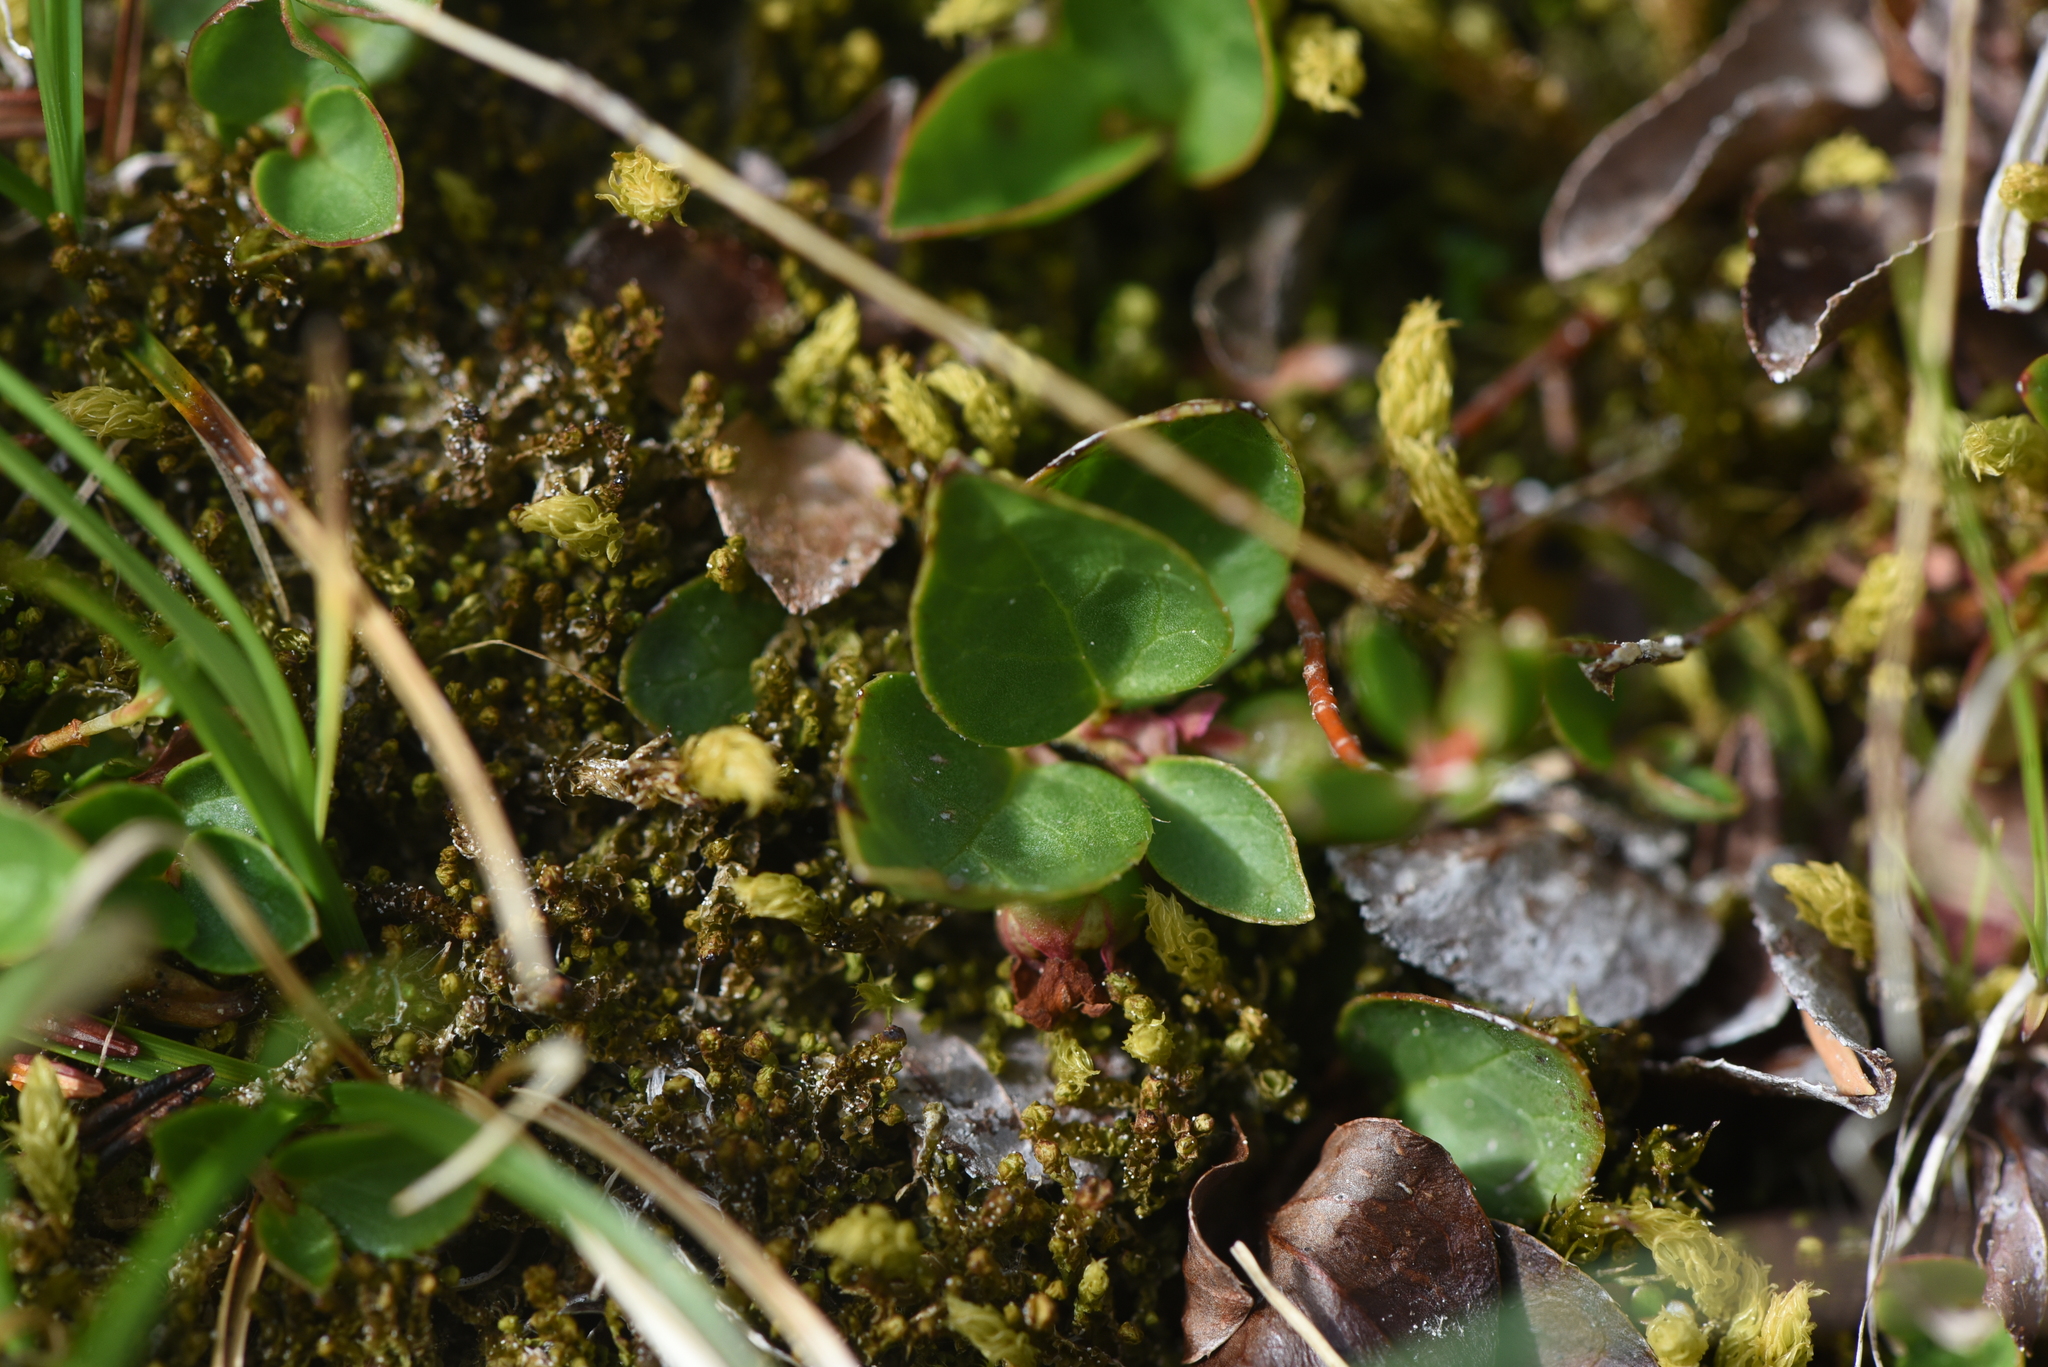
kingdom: Plantae
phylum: Tracheophyta
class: Magnoliopsida
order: Ericales
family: Ericaceae
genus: Gaultheria
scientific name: Gaultheria humifusa
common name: Alpine wintergreen
